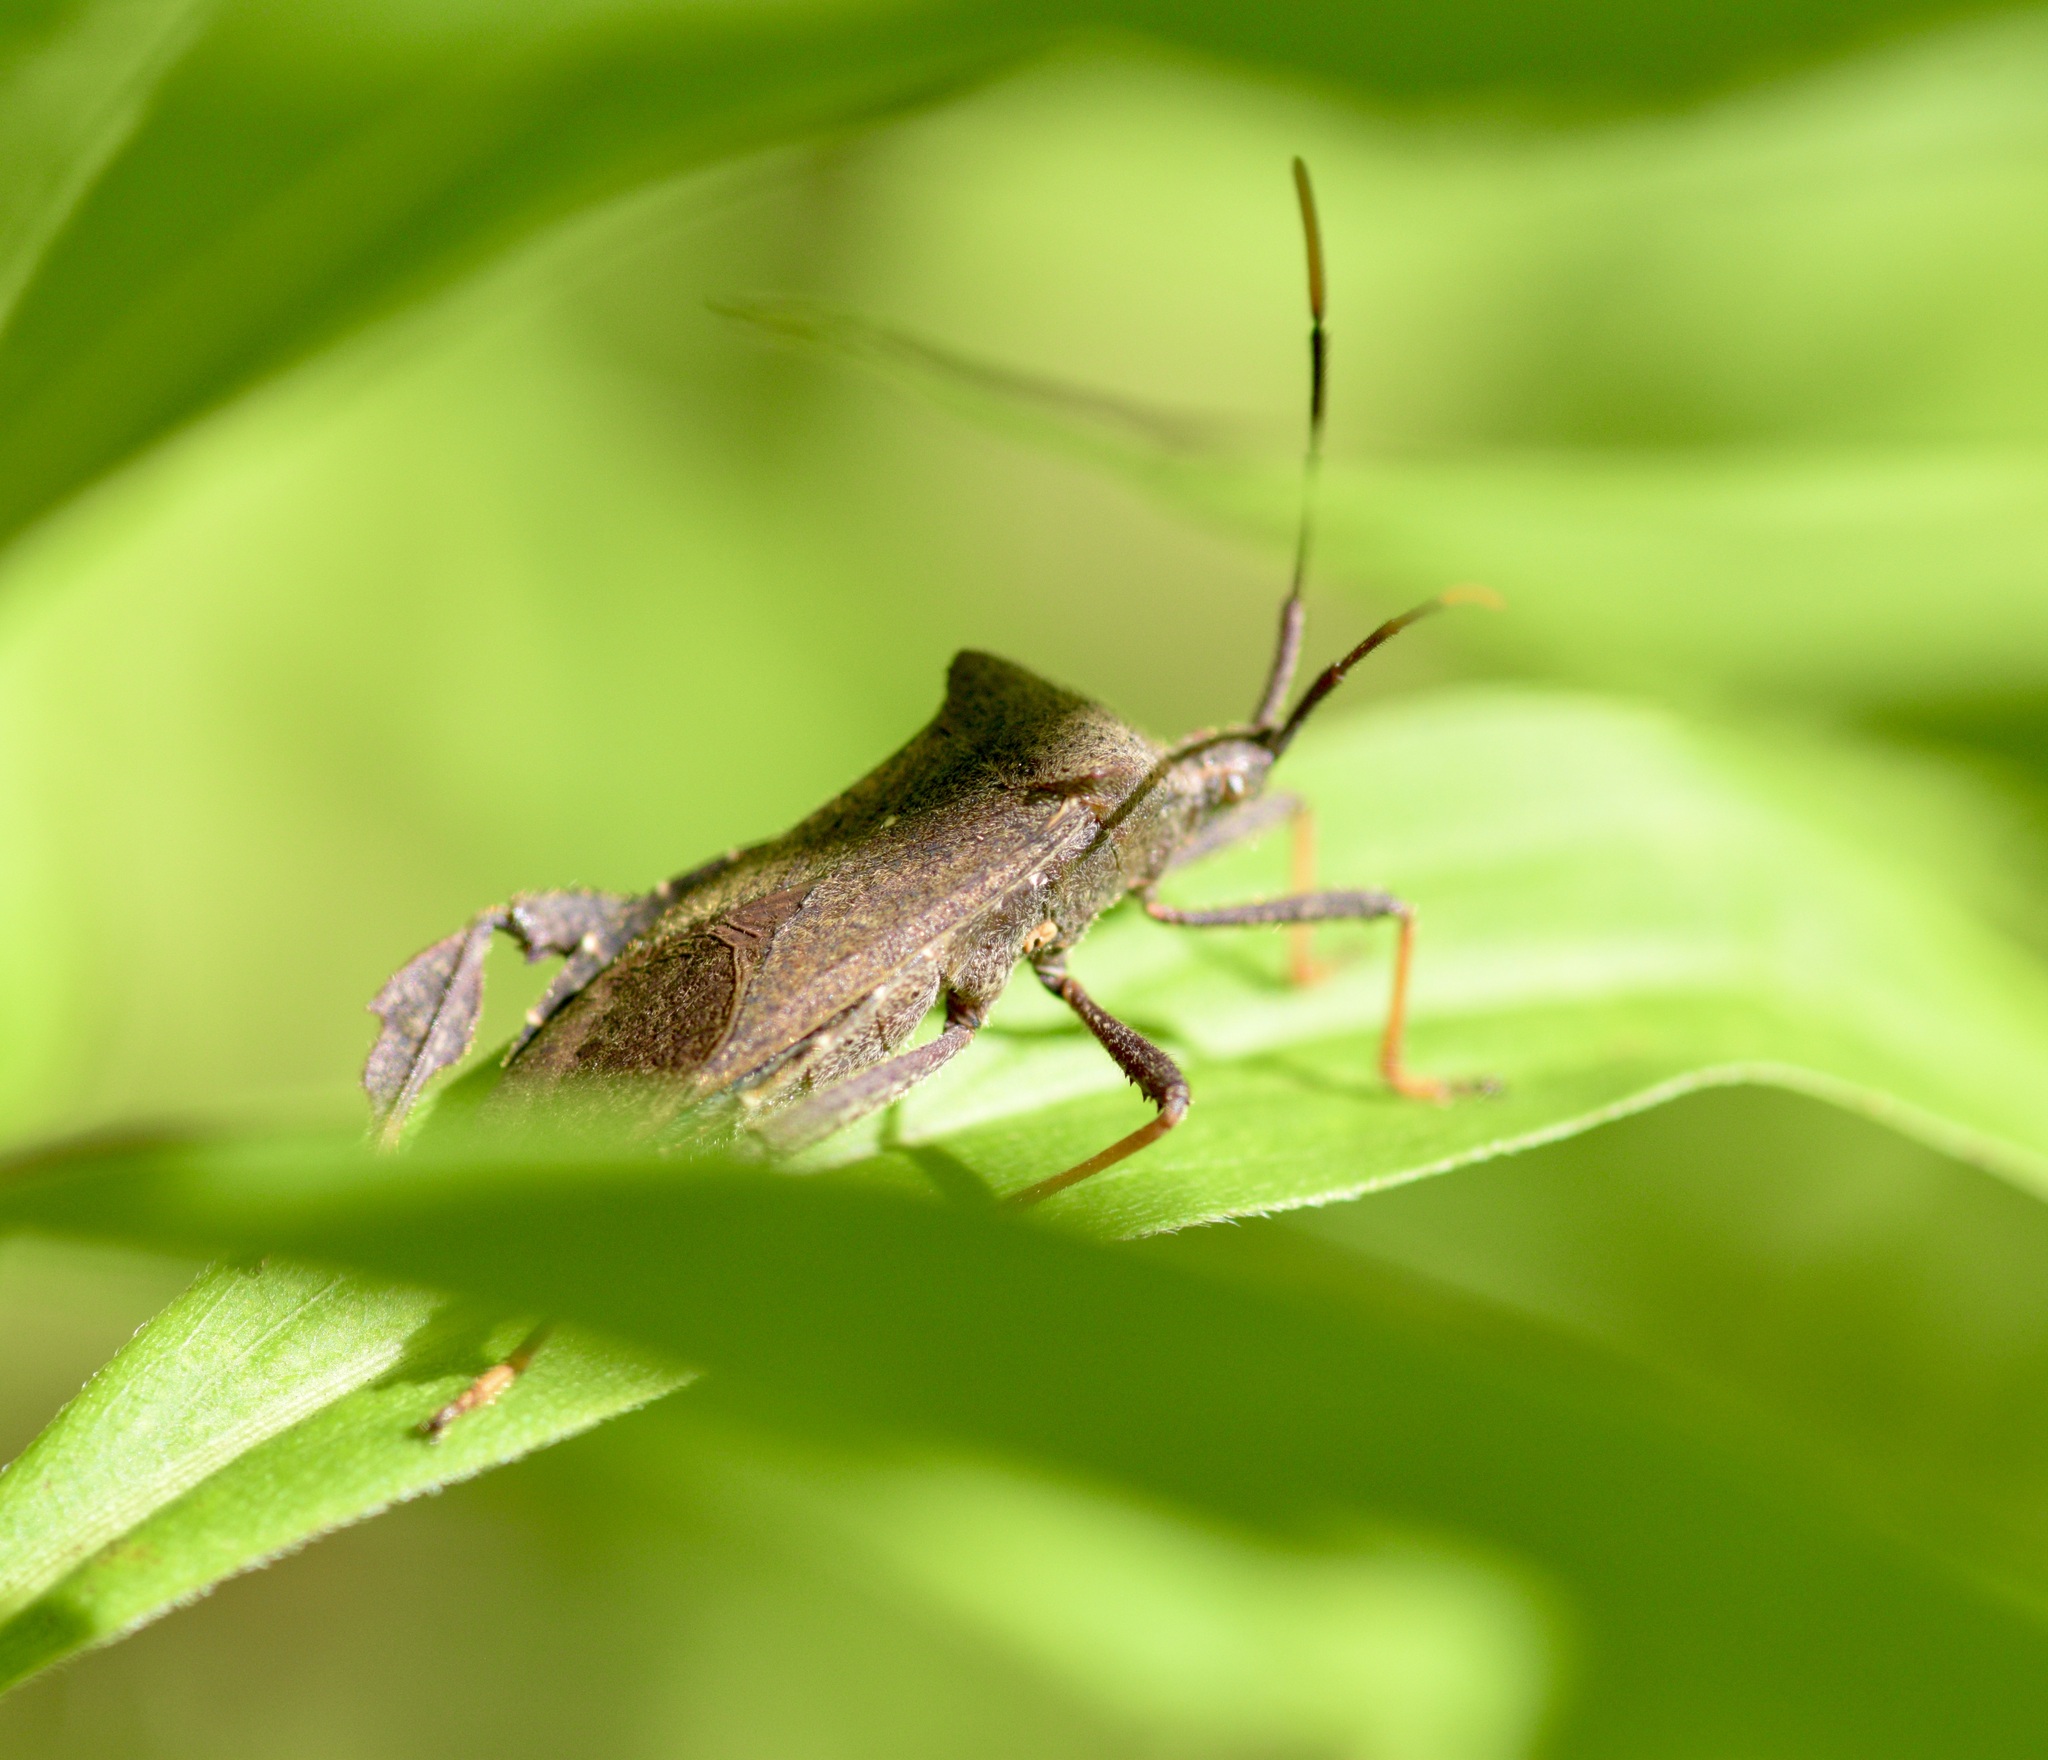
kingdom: Animalia
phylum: Arthropoda
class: Insecta
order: Hemiptera
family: Coreidae
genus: Acanthocephala
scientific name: Acanthocephala terminalis
